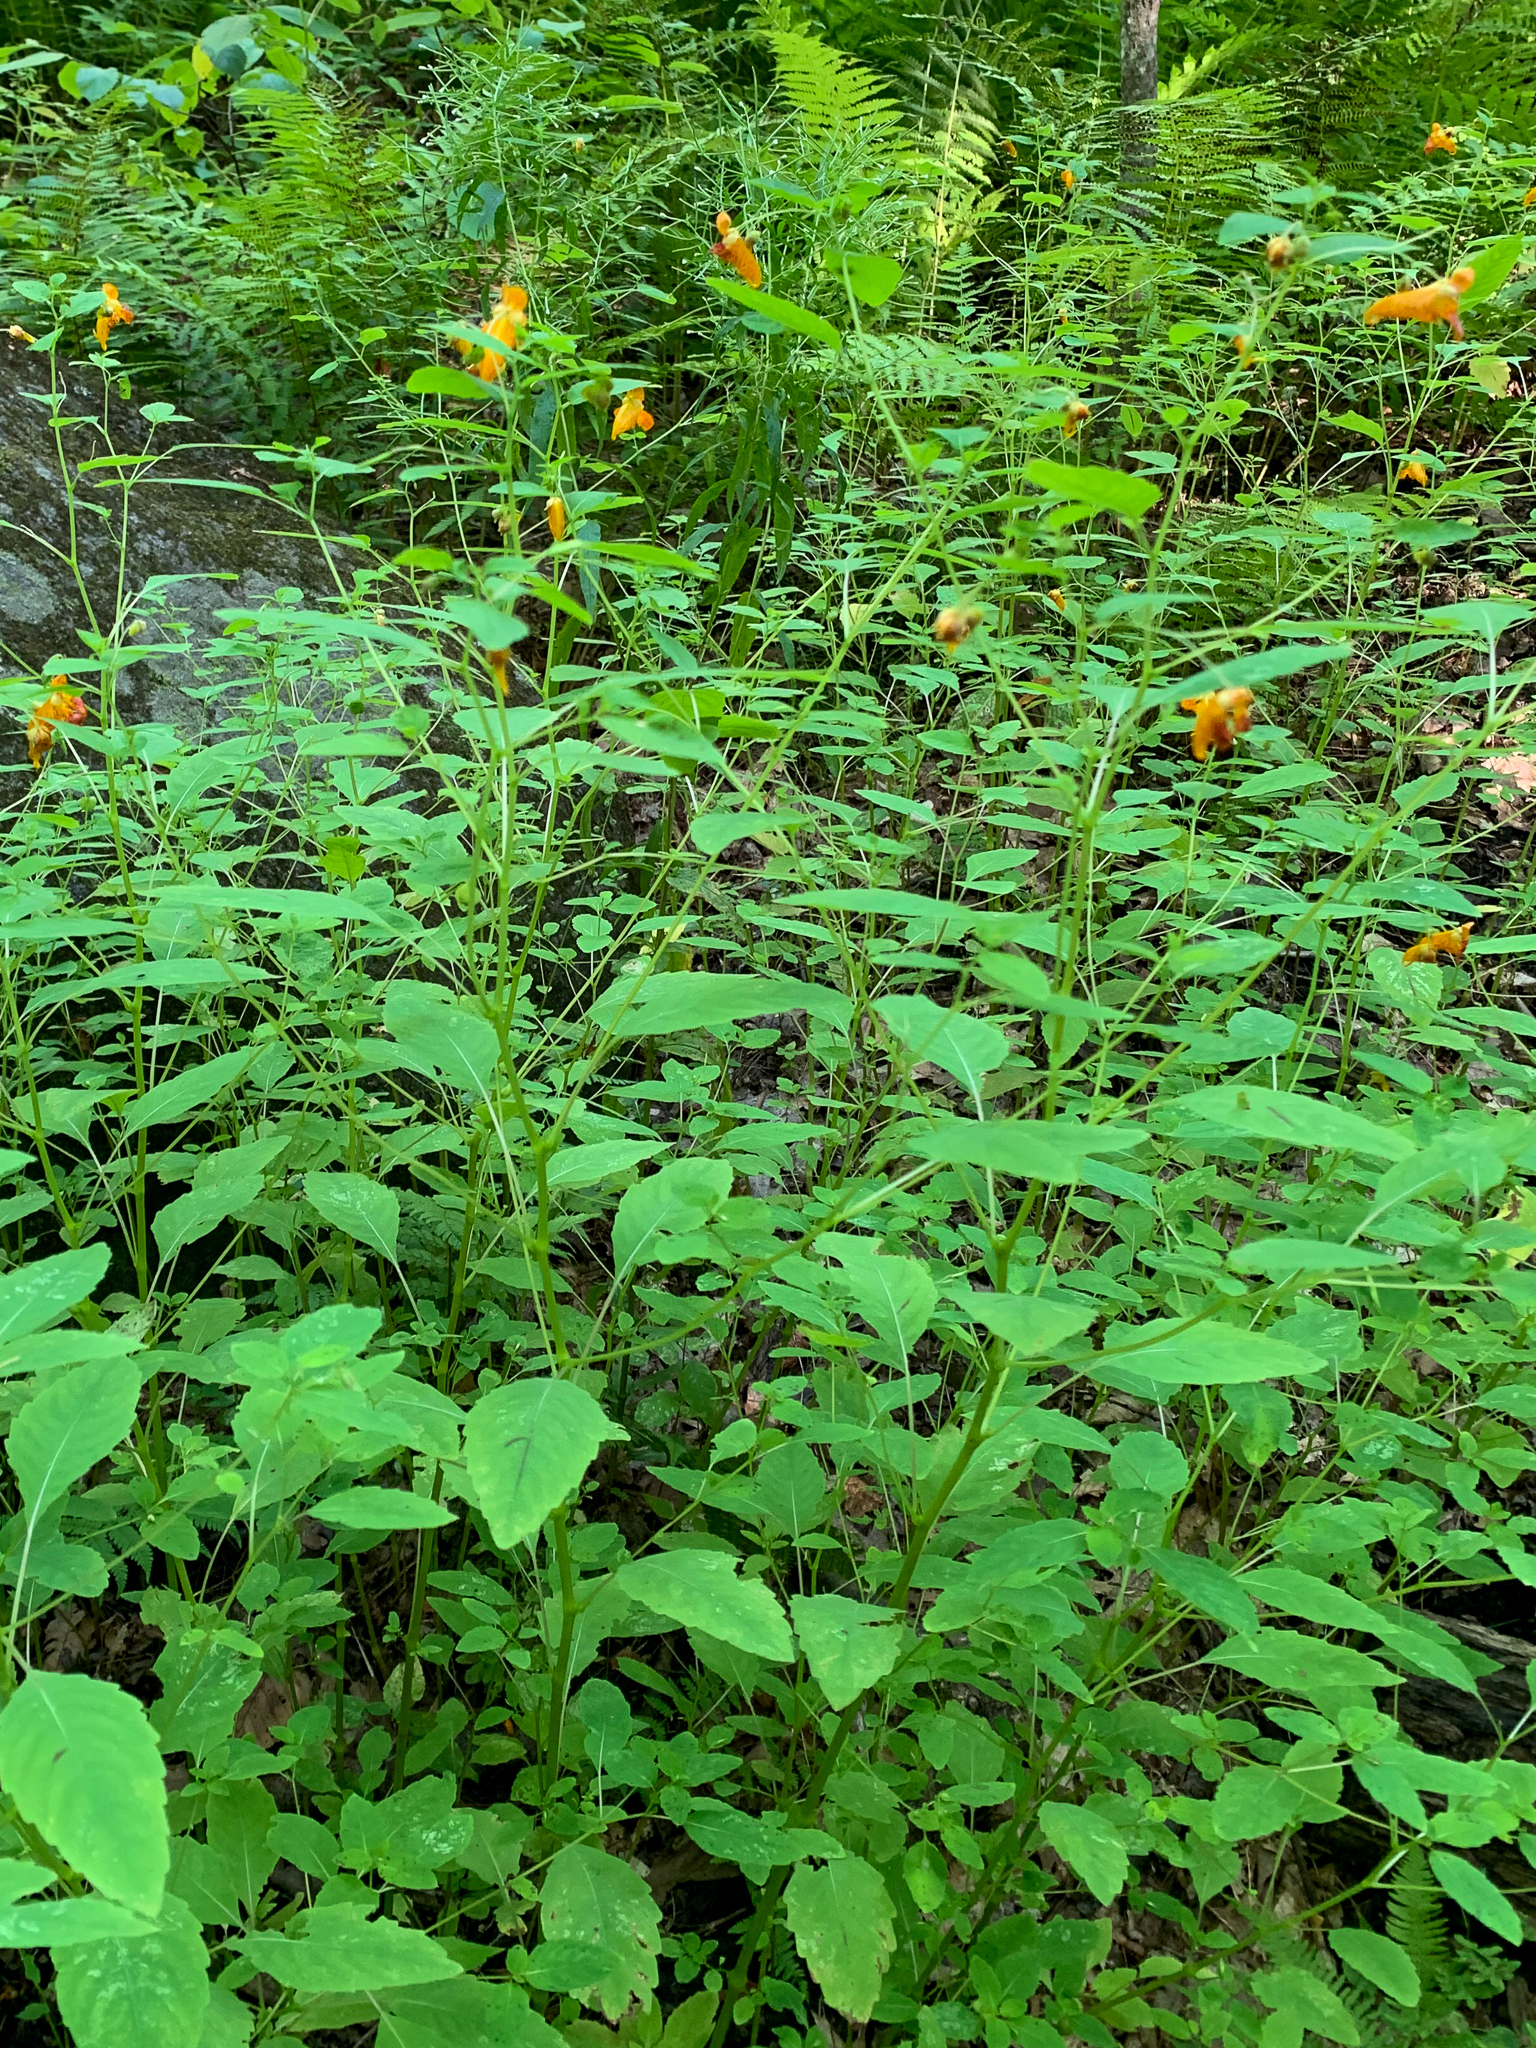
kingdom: Plantae
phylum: Tracheophyta
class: Magnoliopsida
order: Ericales
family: Balsaminaceae
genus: Impatiens
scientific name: Impatiens capensis
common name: Orange balsam
